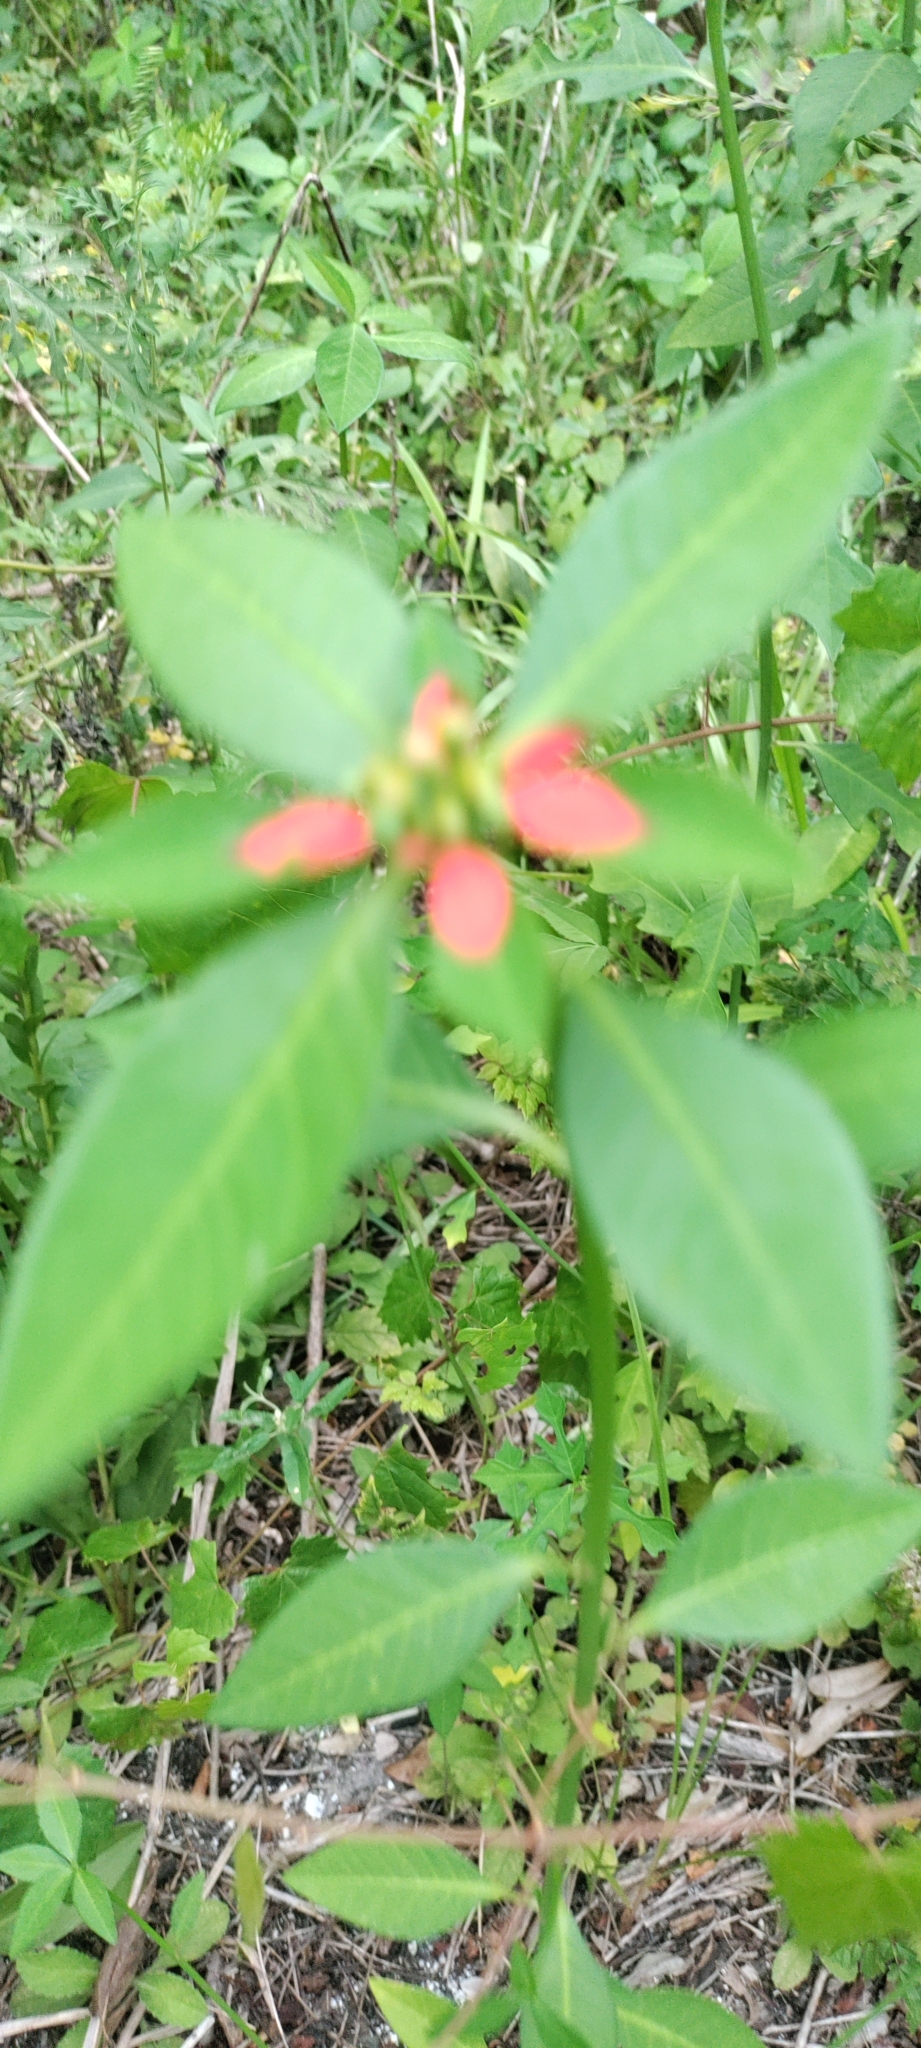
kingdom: Plantae
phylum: Tracheophyta
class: Magnoliopsida
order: Malpighiales
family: Euphorbiaceae
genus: Euphorbia
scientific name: Euphorbia heterophylla
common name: Mexican fireplant
